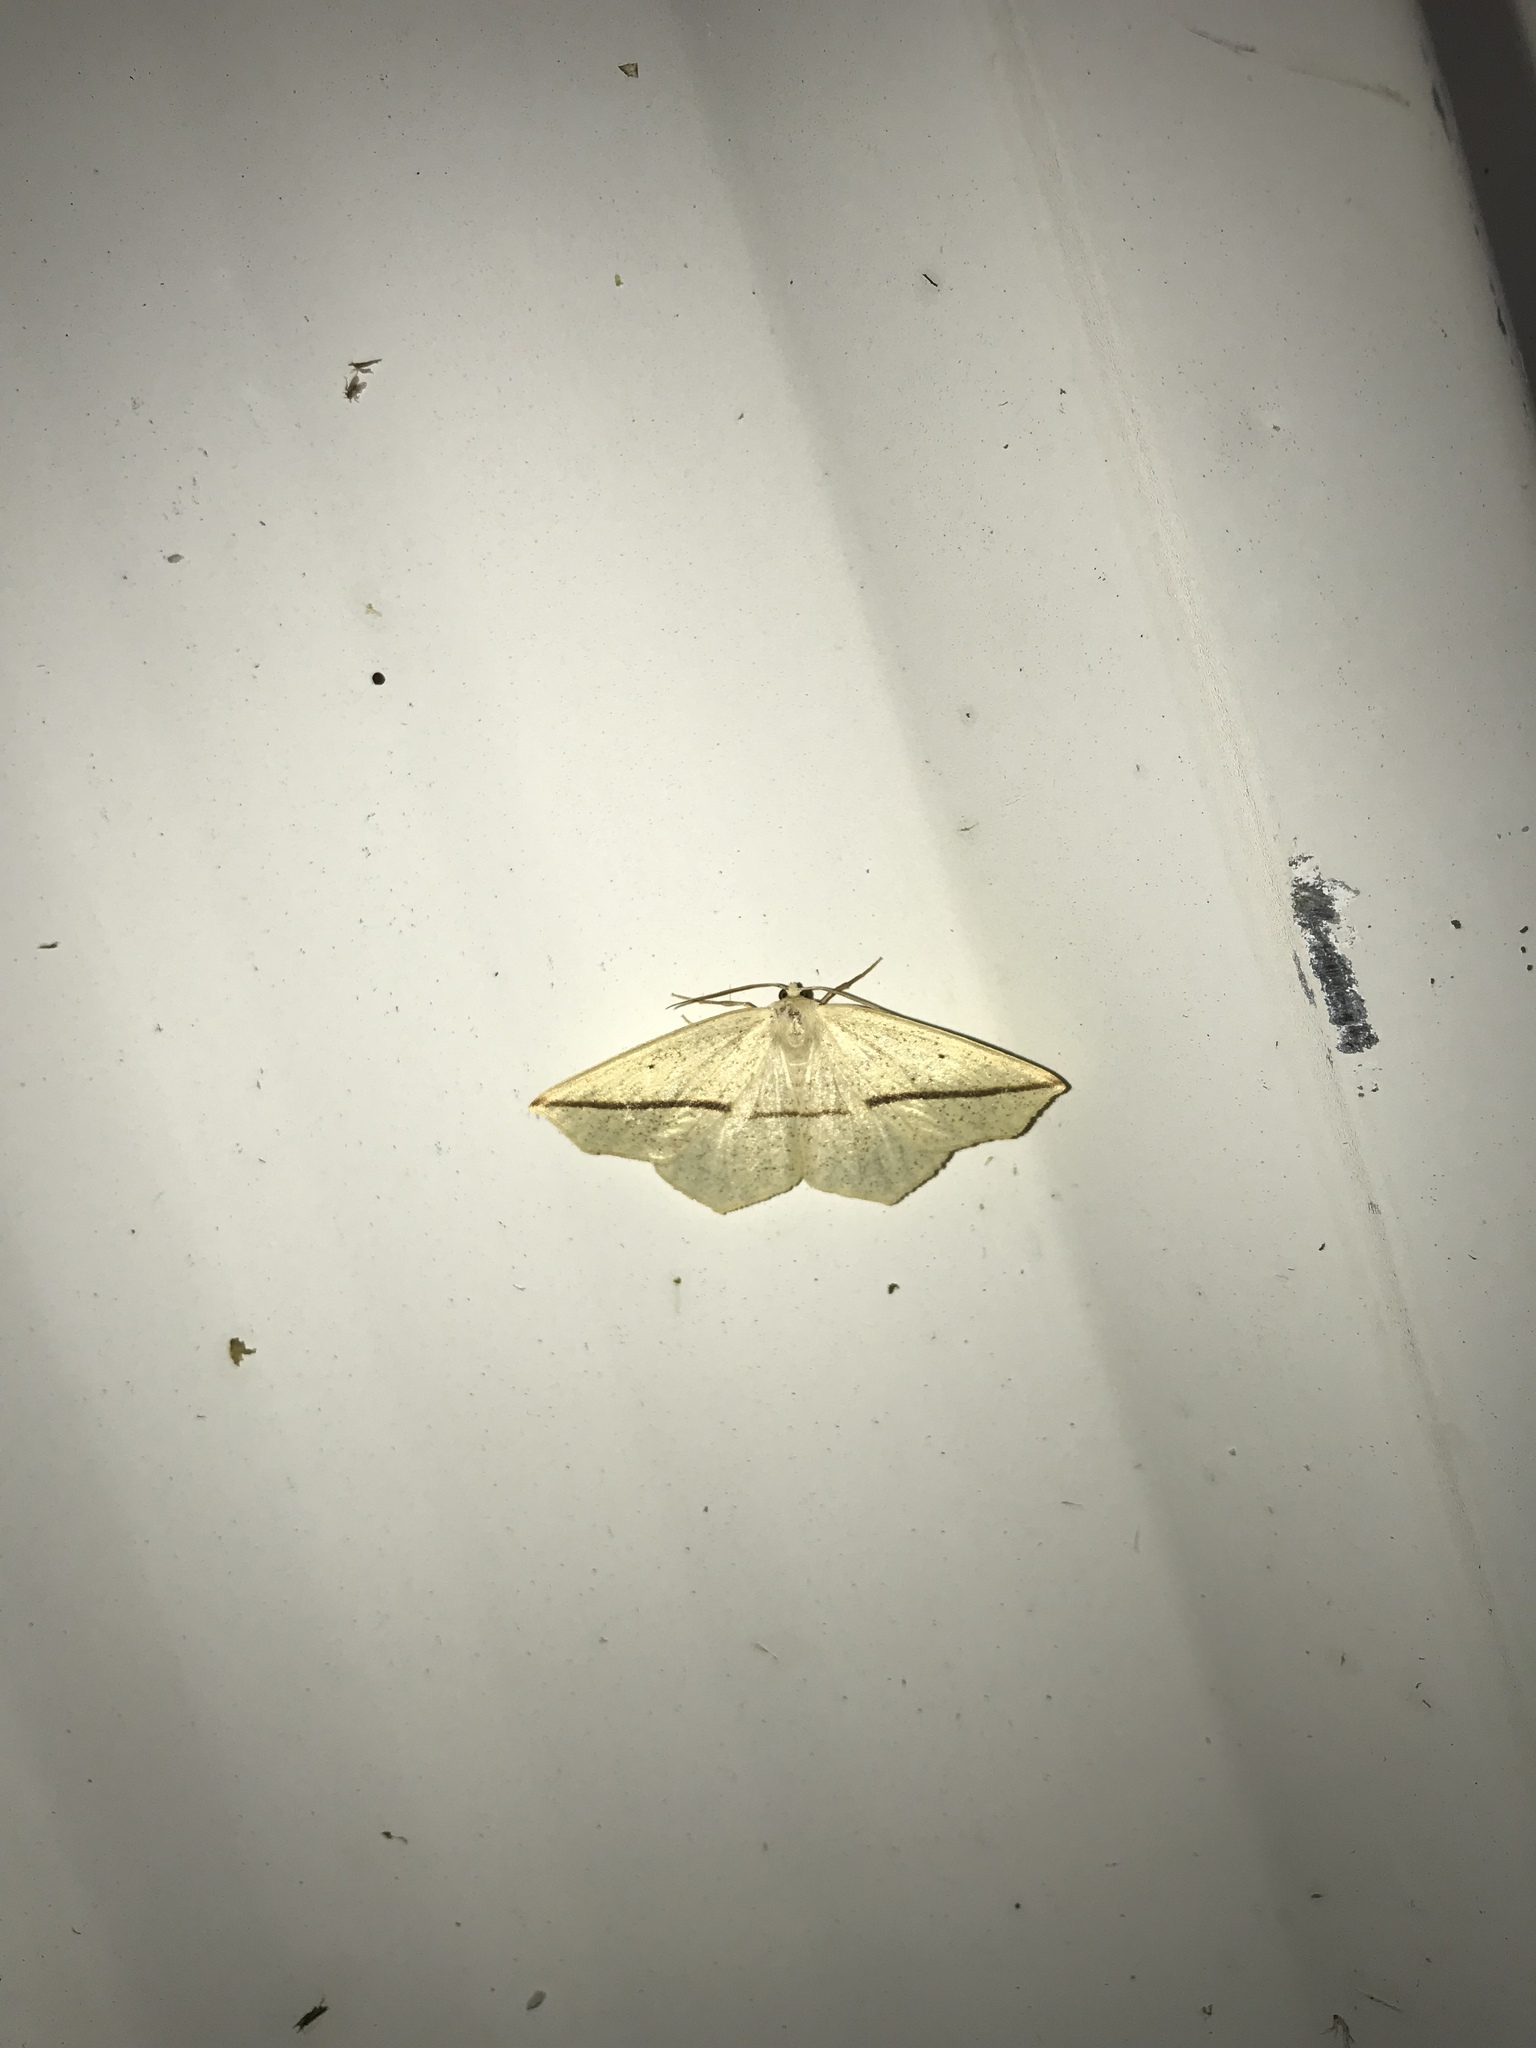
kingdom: Animalia
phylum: Arthropoda
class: Insecta
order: Lepidoptera
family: Geometridae
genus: Tetracis
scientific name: Tetracis crocallata
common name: Yellow slant-line
